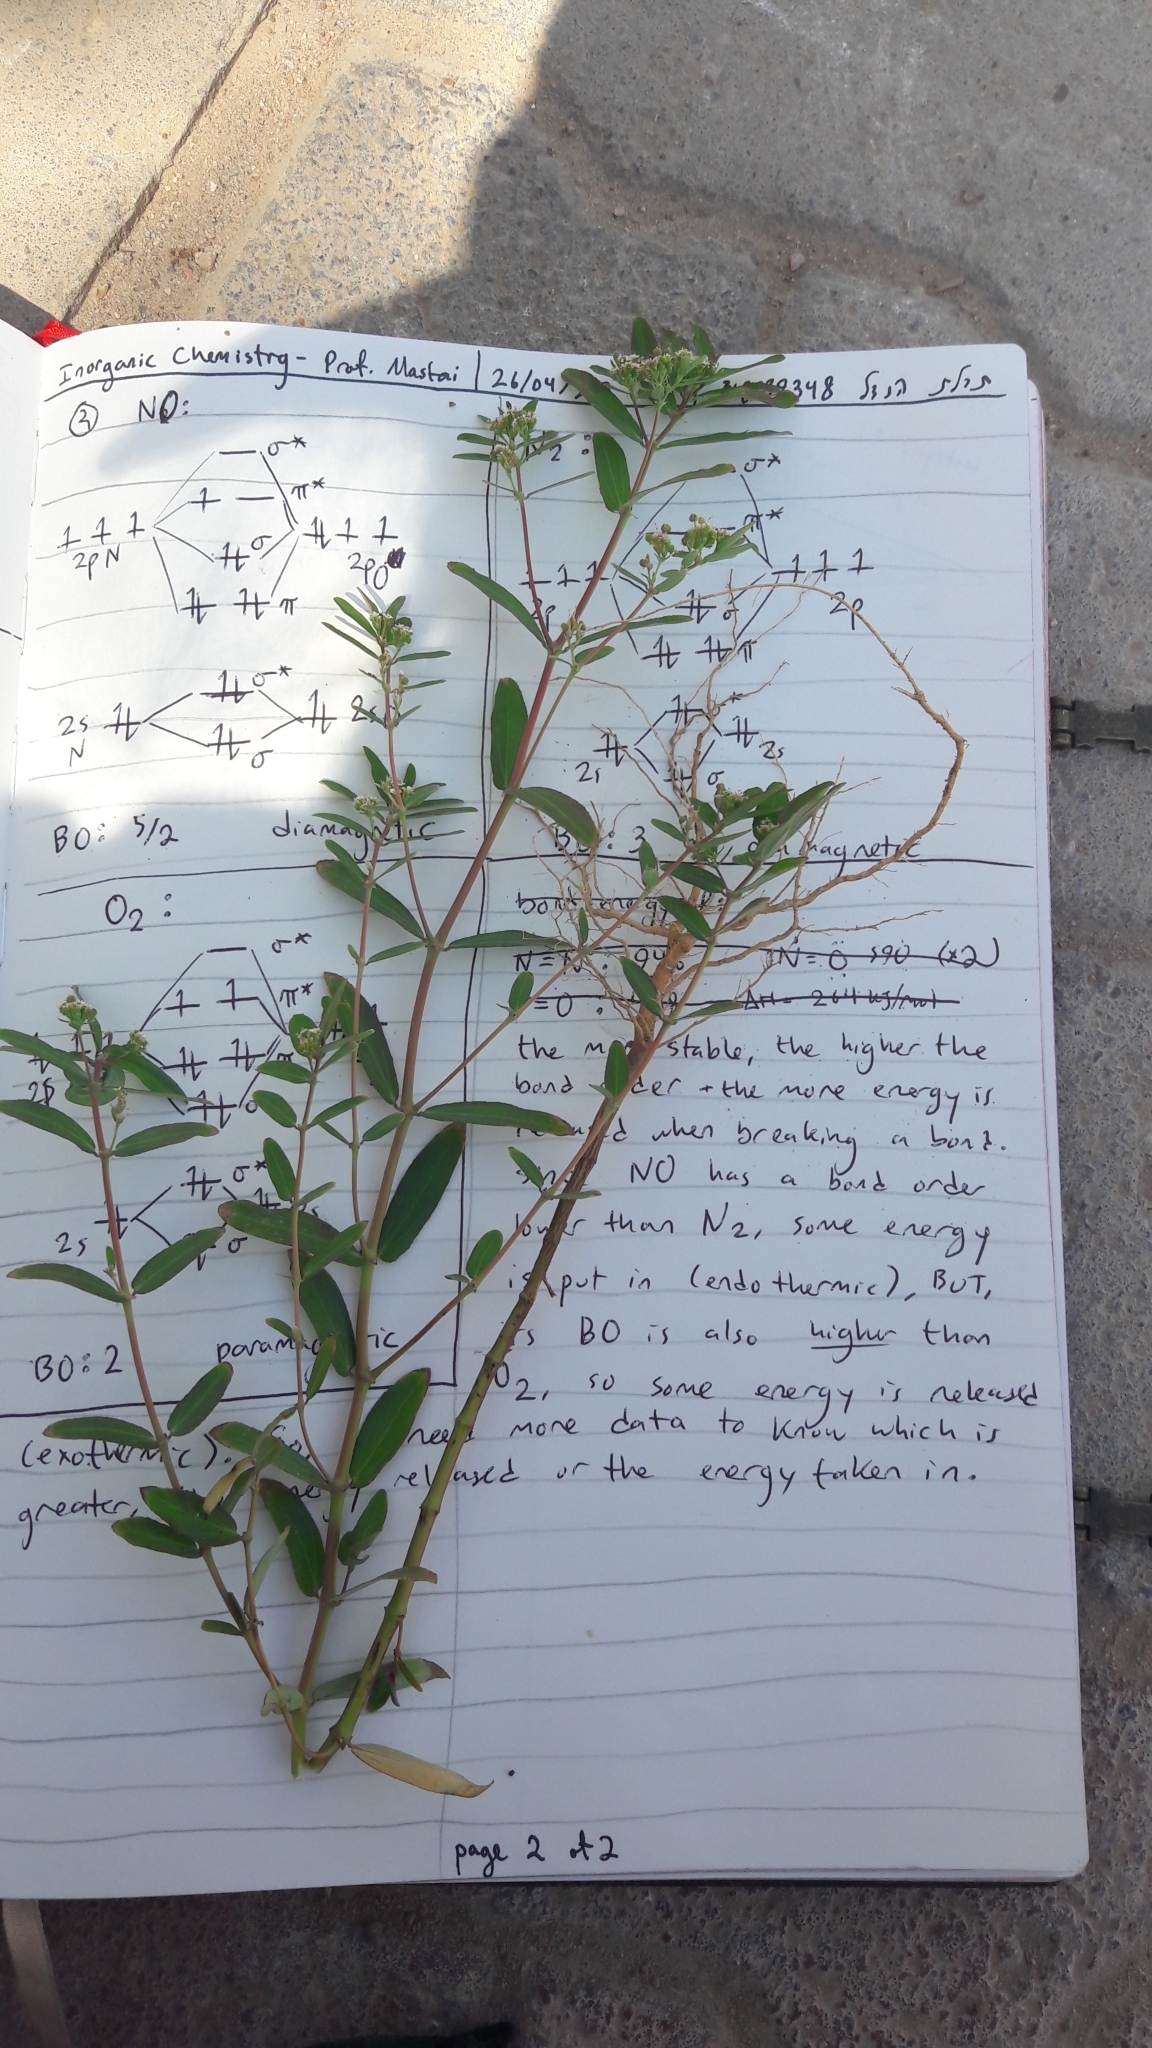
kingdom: Plantae
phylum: Tracheophyta
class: Magnoliopsida
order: Malpighiales
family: Euphorbiaceae
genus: Euphorbia
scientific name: Euphorbia hypericifolia
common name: Graceful sandmat
